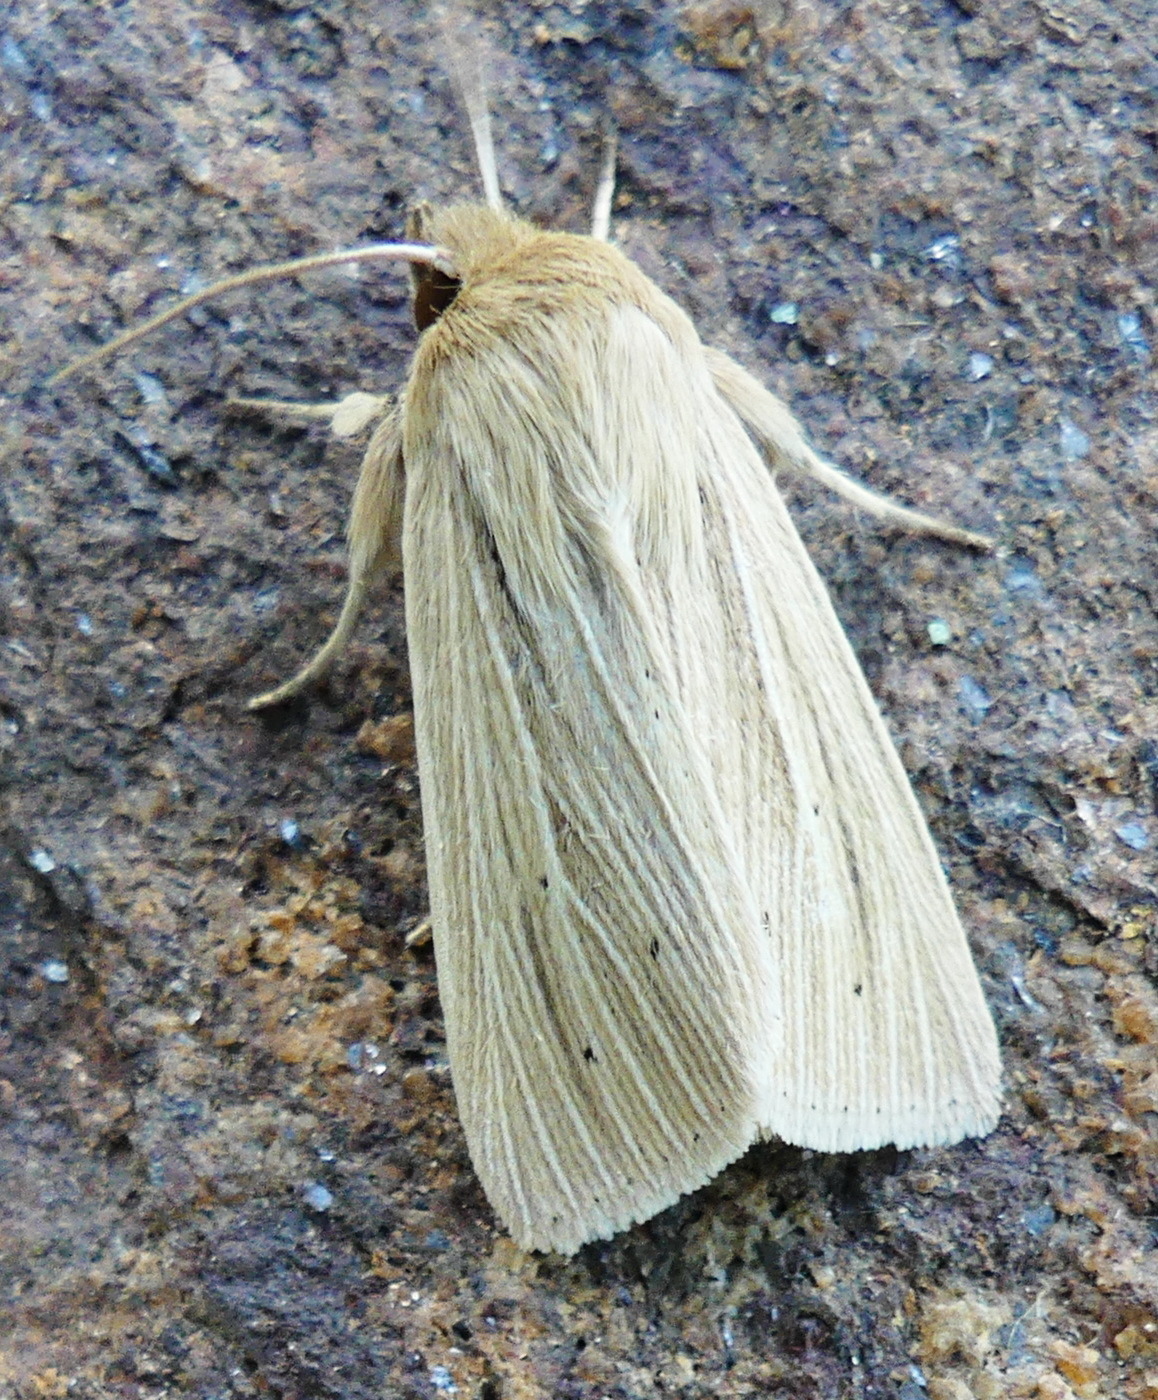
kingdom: Animalia
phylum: Arthropoda
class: Insecta
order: Lepidoptera
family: Noctuidae
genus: Mythimna
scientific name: Mythimna oxygala
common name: Lesser wainscot
